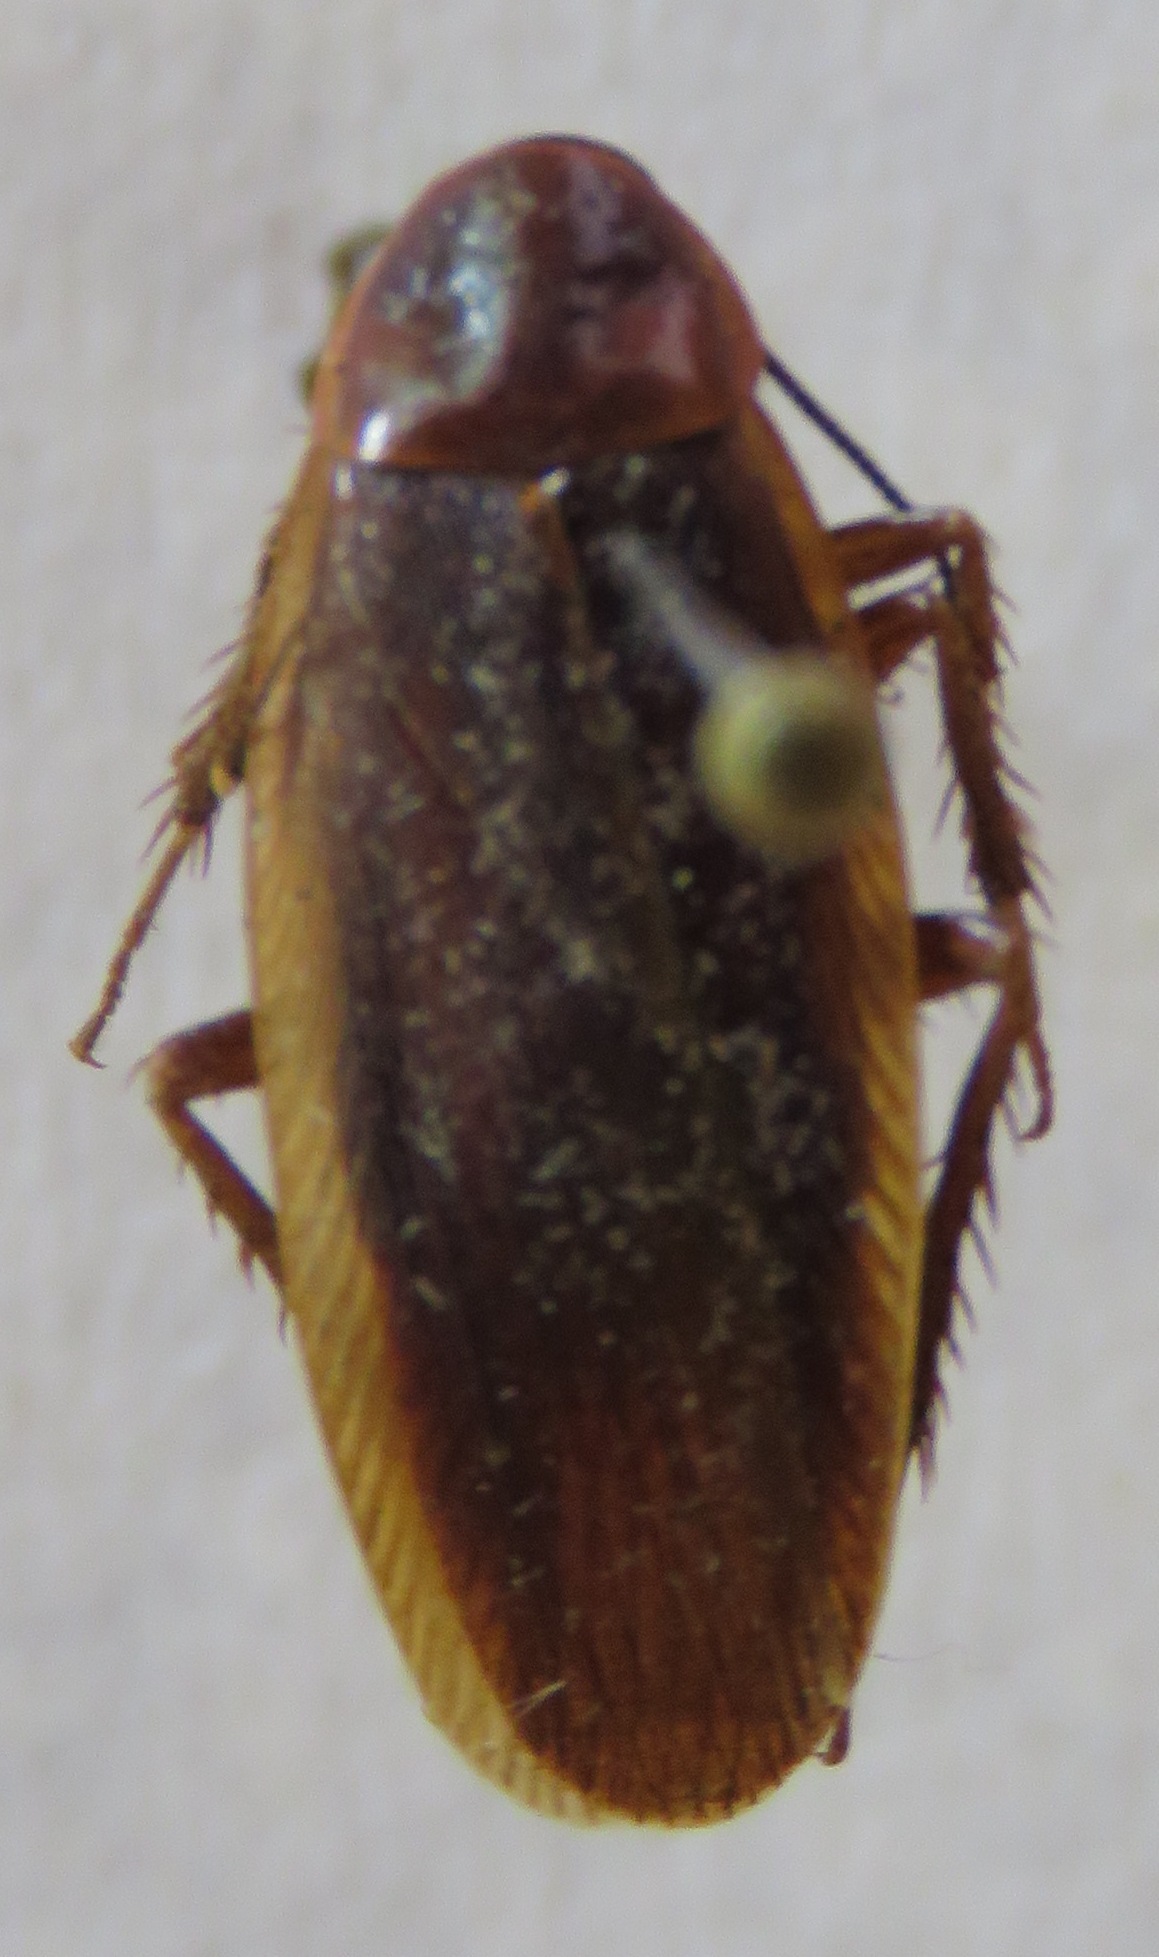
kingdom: Animalia
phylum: Arthropoda
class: Insecta
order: Blattodea
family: Ectobiidae
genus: Ischnoptera
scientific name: Ischnoptera rufa
